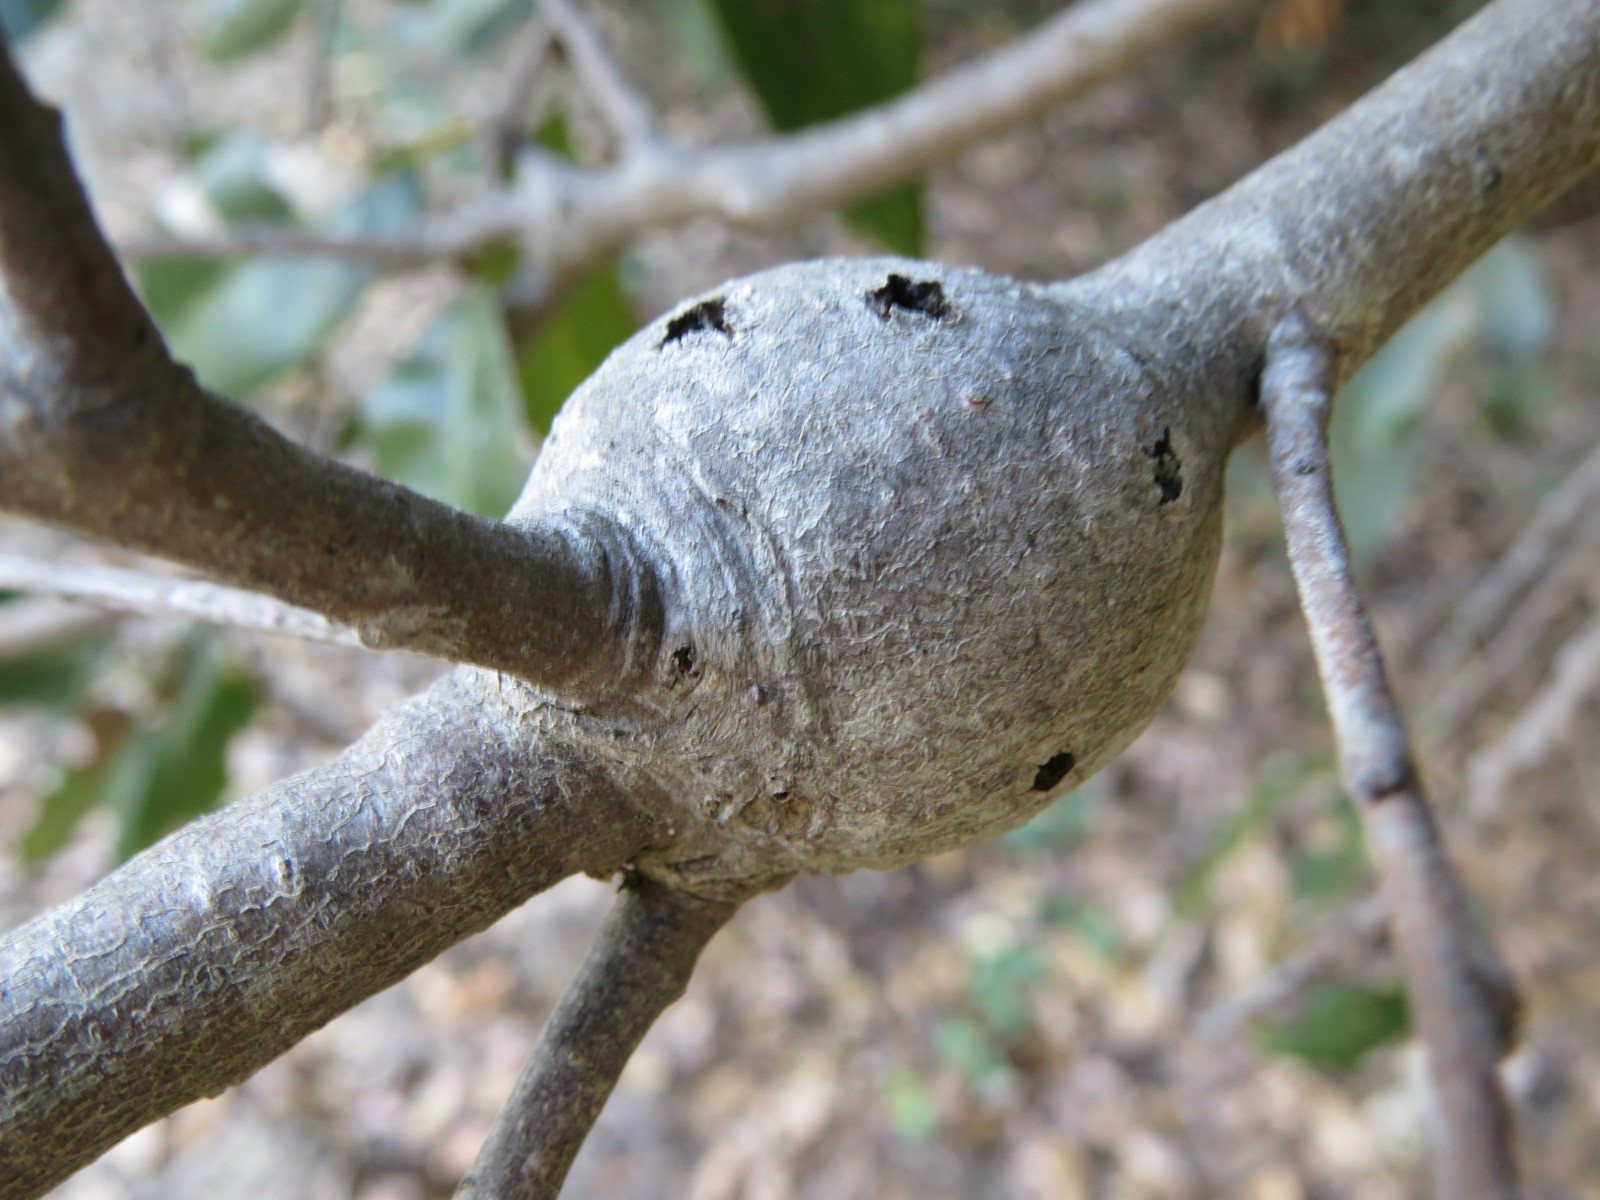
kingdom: Animalia
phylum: Arthropoda
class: Insecta
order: Hymenoptera
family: Cynipidae
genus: Callirhytis
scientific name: Callirhytis
